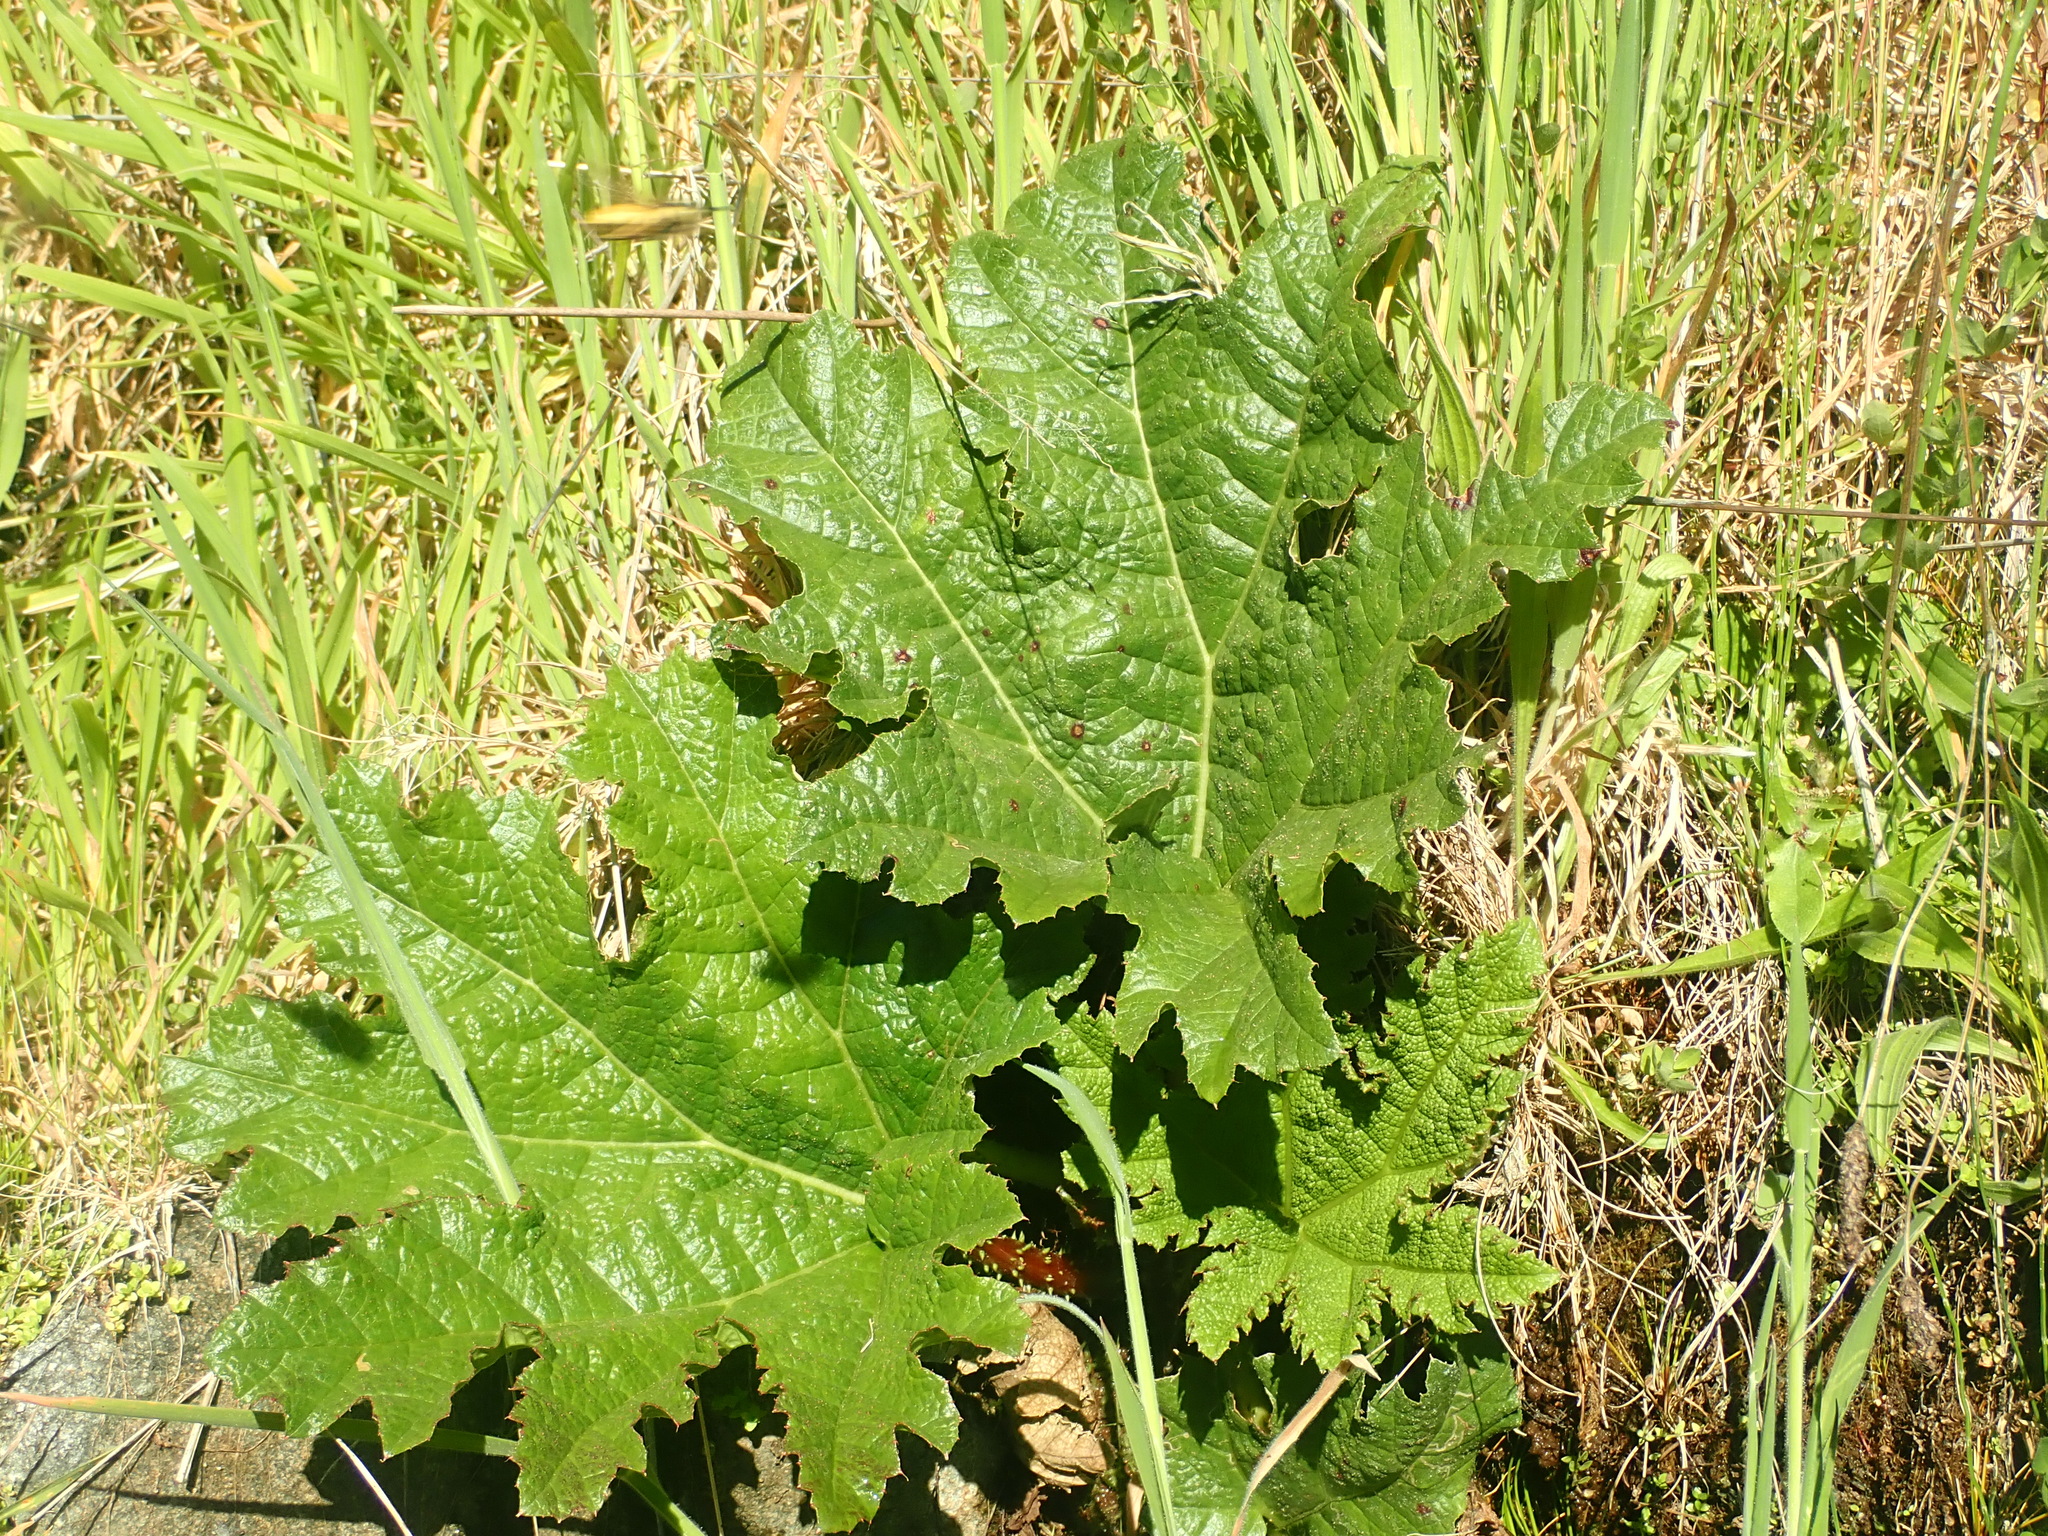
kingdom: Plantae
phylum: Tracheophyta
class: Magnoliopsida
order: Gunnerales
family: Gunneraceae
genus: Gunnera
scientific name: Gunnera tinctoria
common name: Giant-rhubarb
